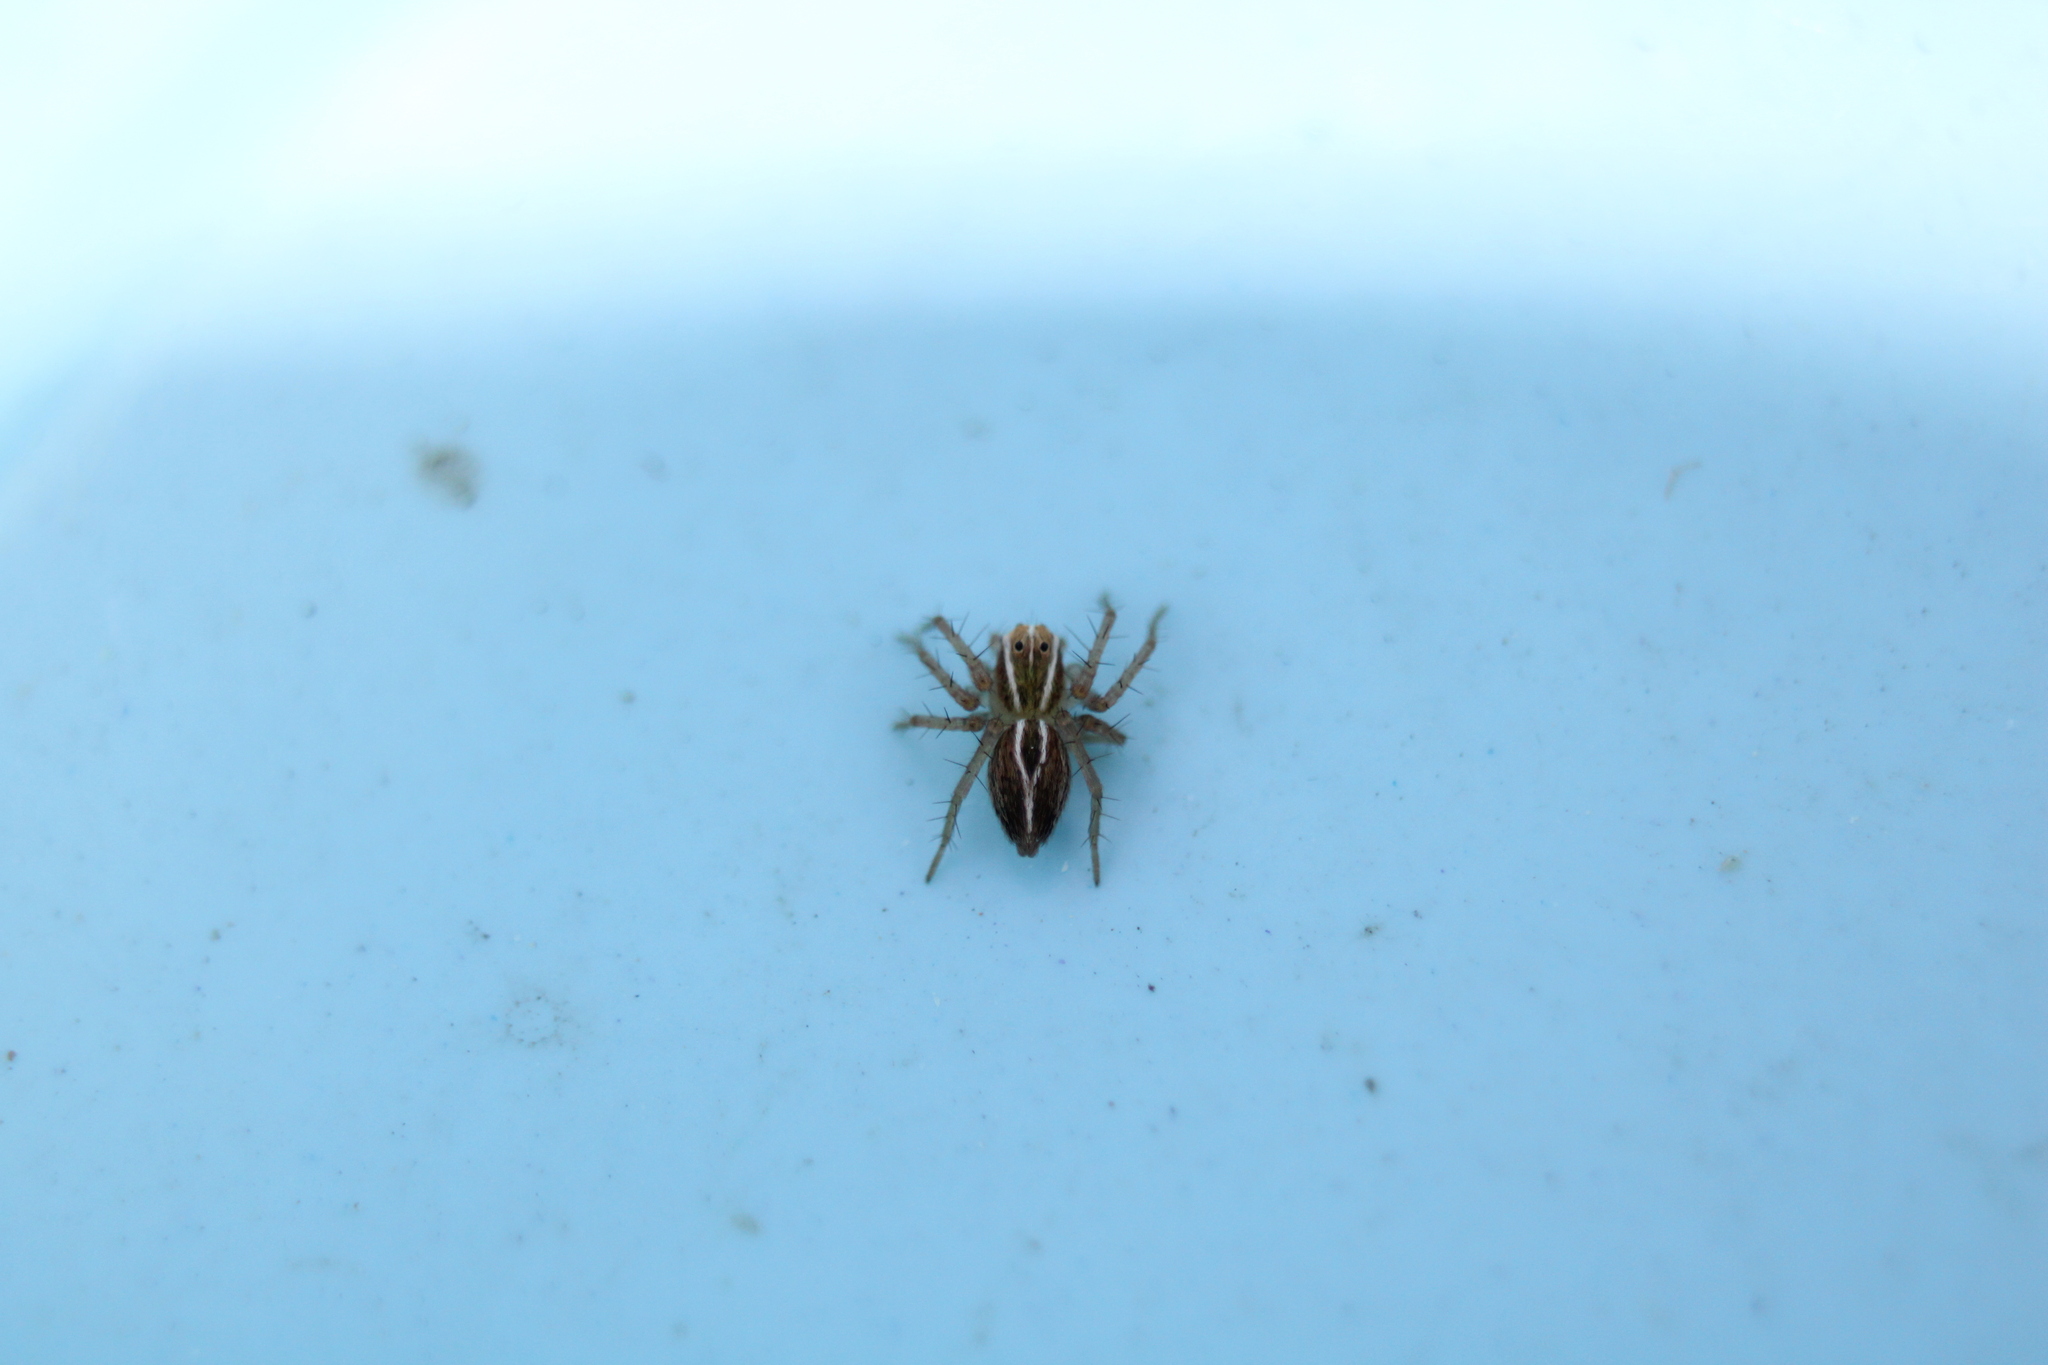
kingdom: Animalia
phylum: Arthropoda
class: Arachnida
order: Araneae
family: Oxyopidae
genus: Oxyopes
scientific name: Oxyopes salticus
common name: Lynx spiders
